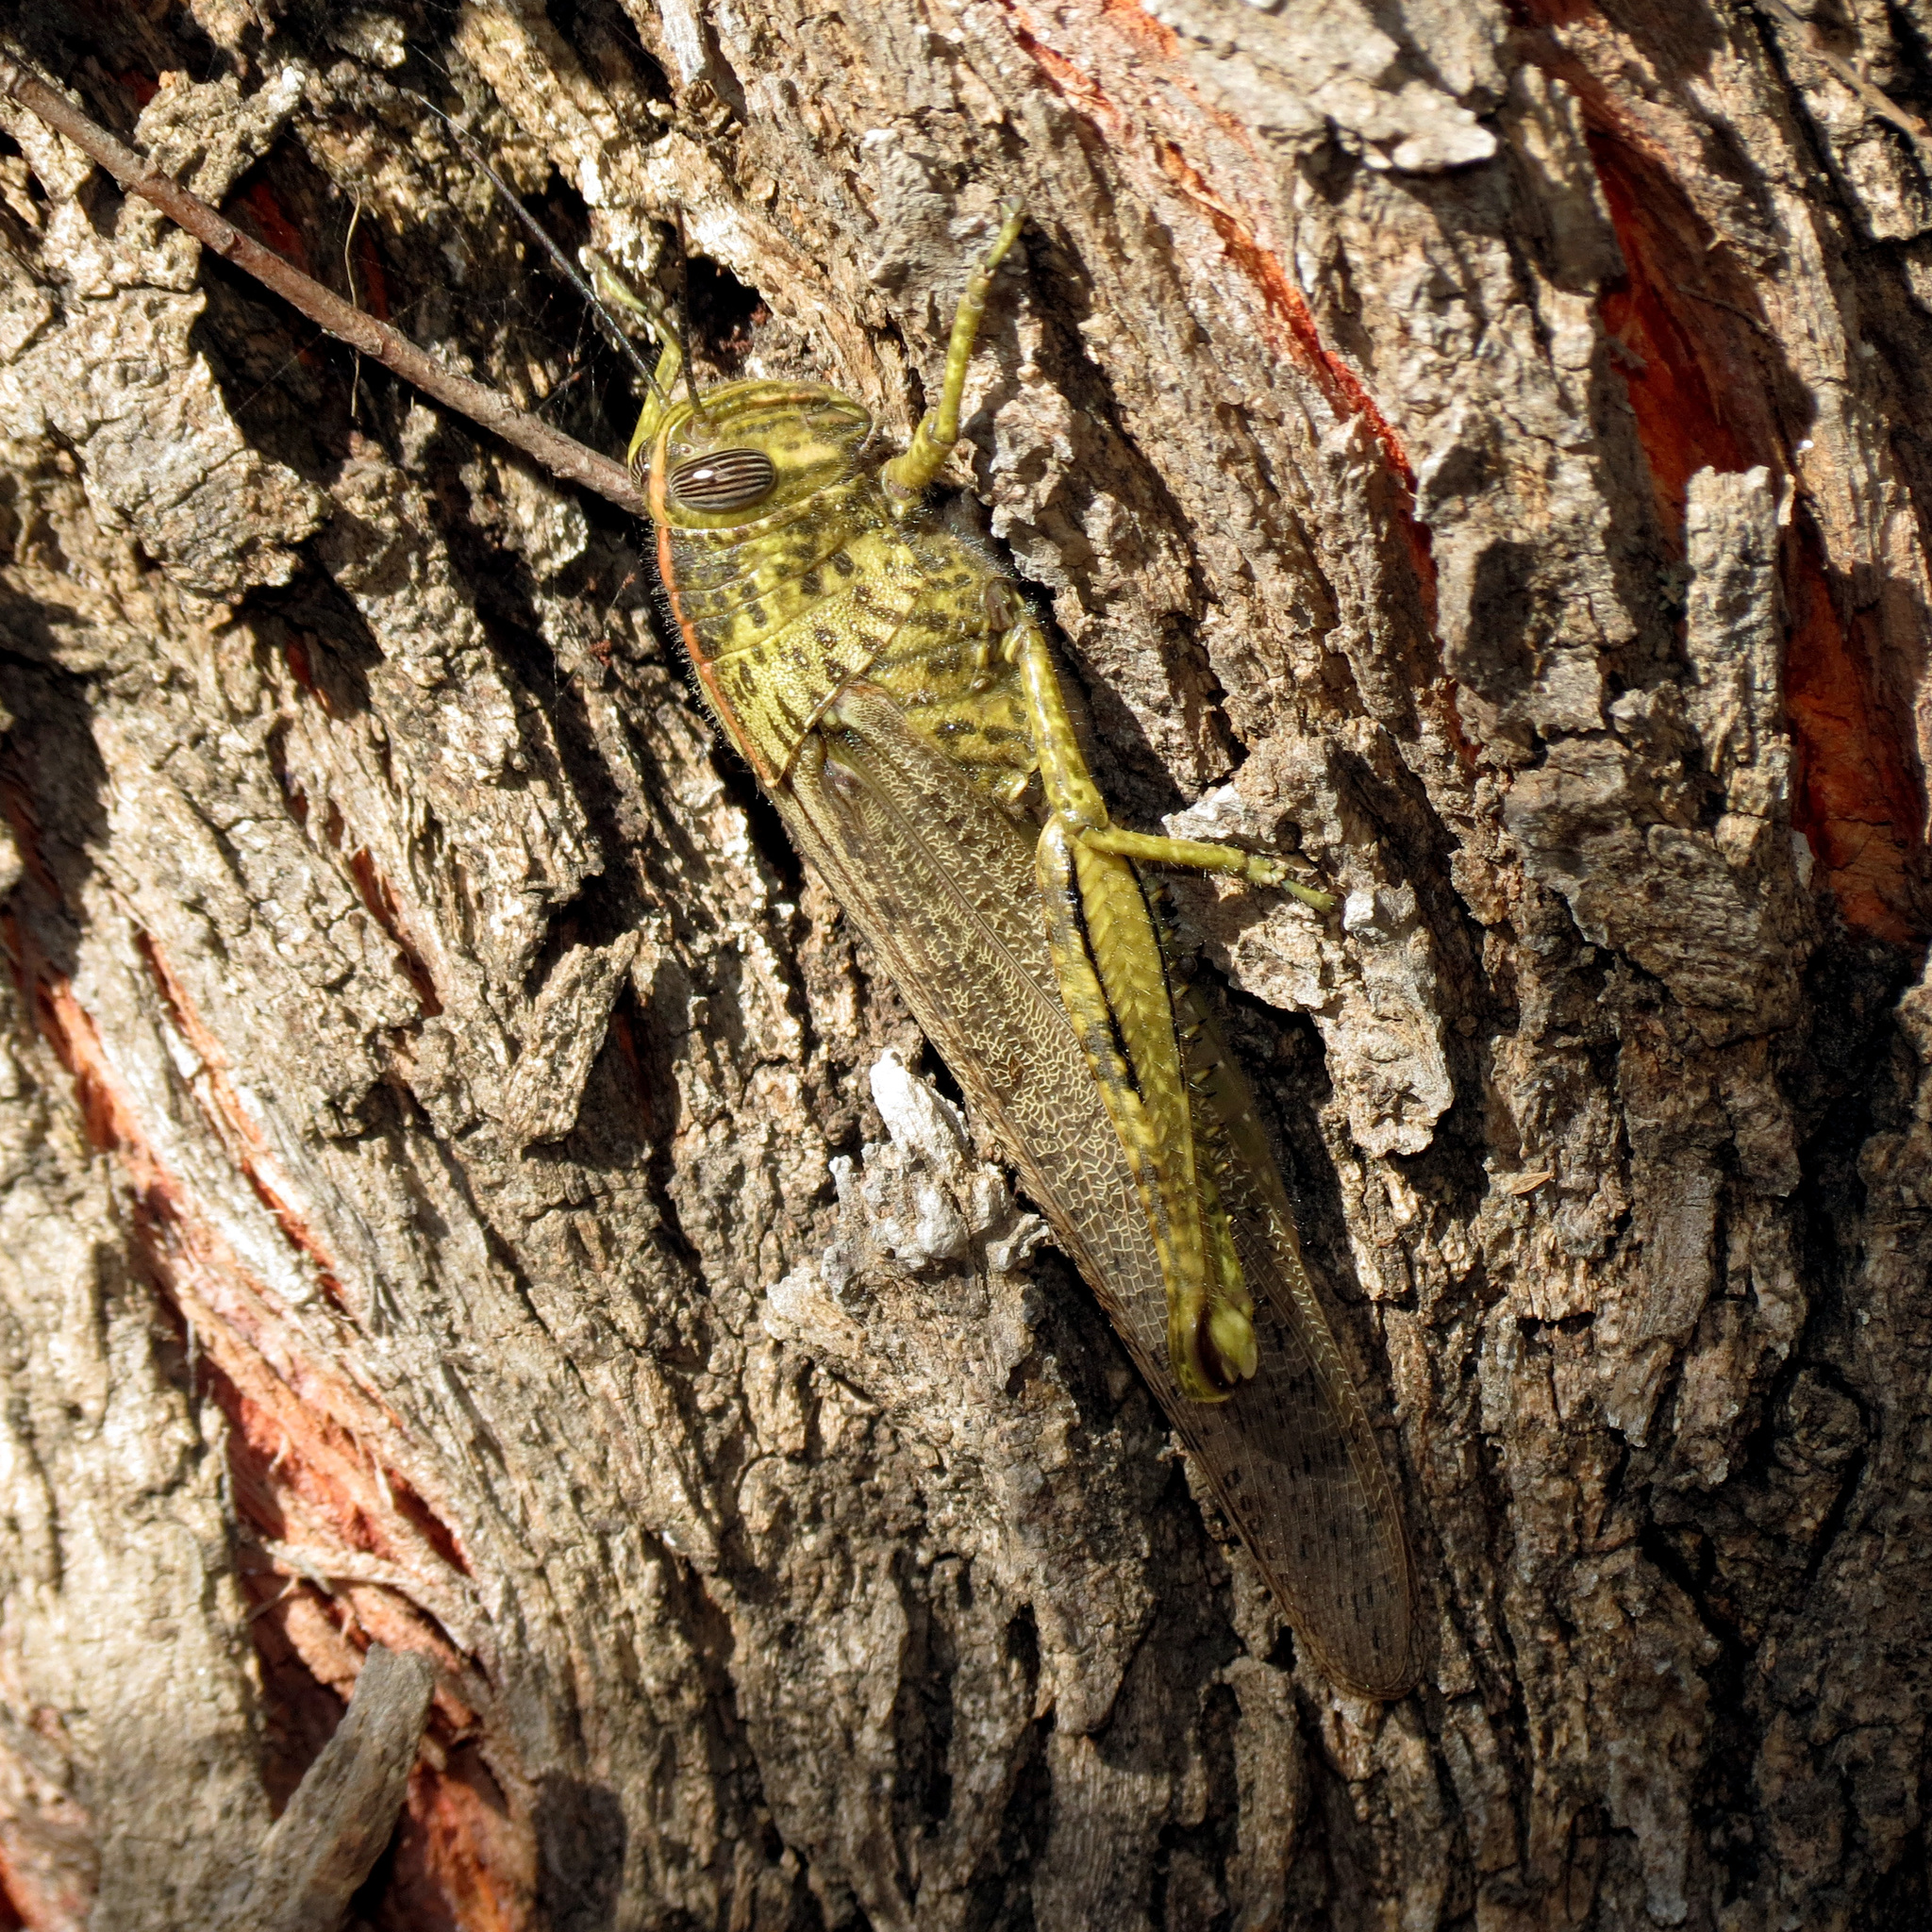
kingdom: Animalia
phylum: Arthropoda
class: Insecta
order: Orthoptera
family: Acrididae
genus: Anacridium
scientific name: Anacridium aegyptium
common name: Egyptian grasshopper
